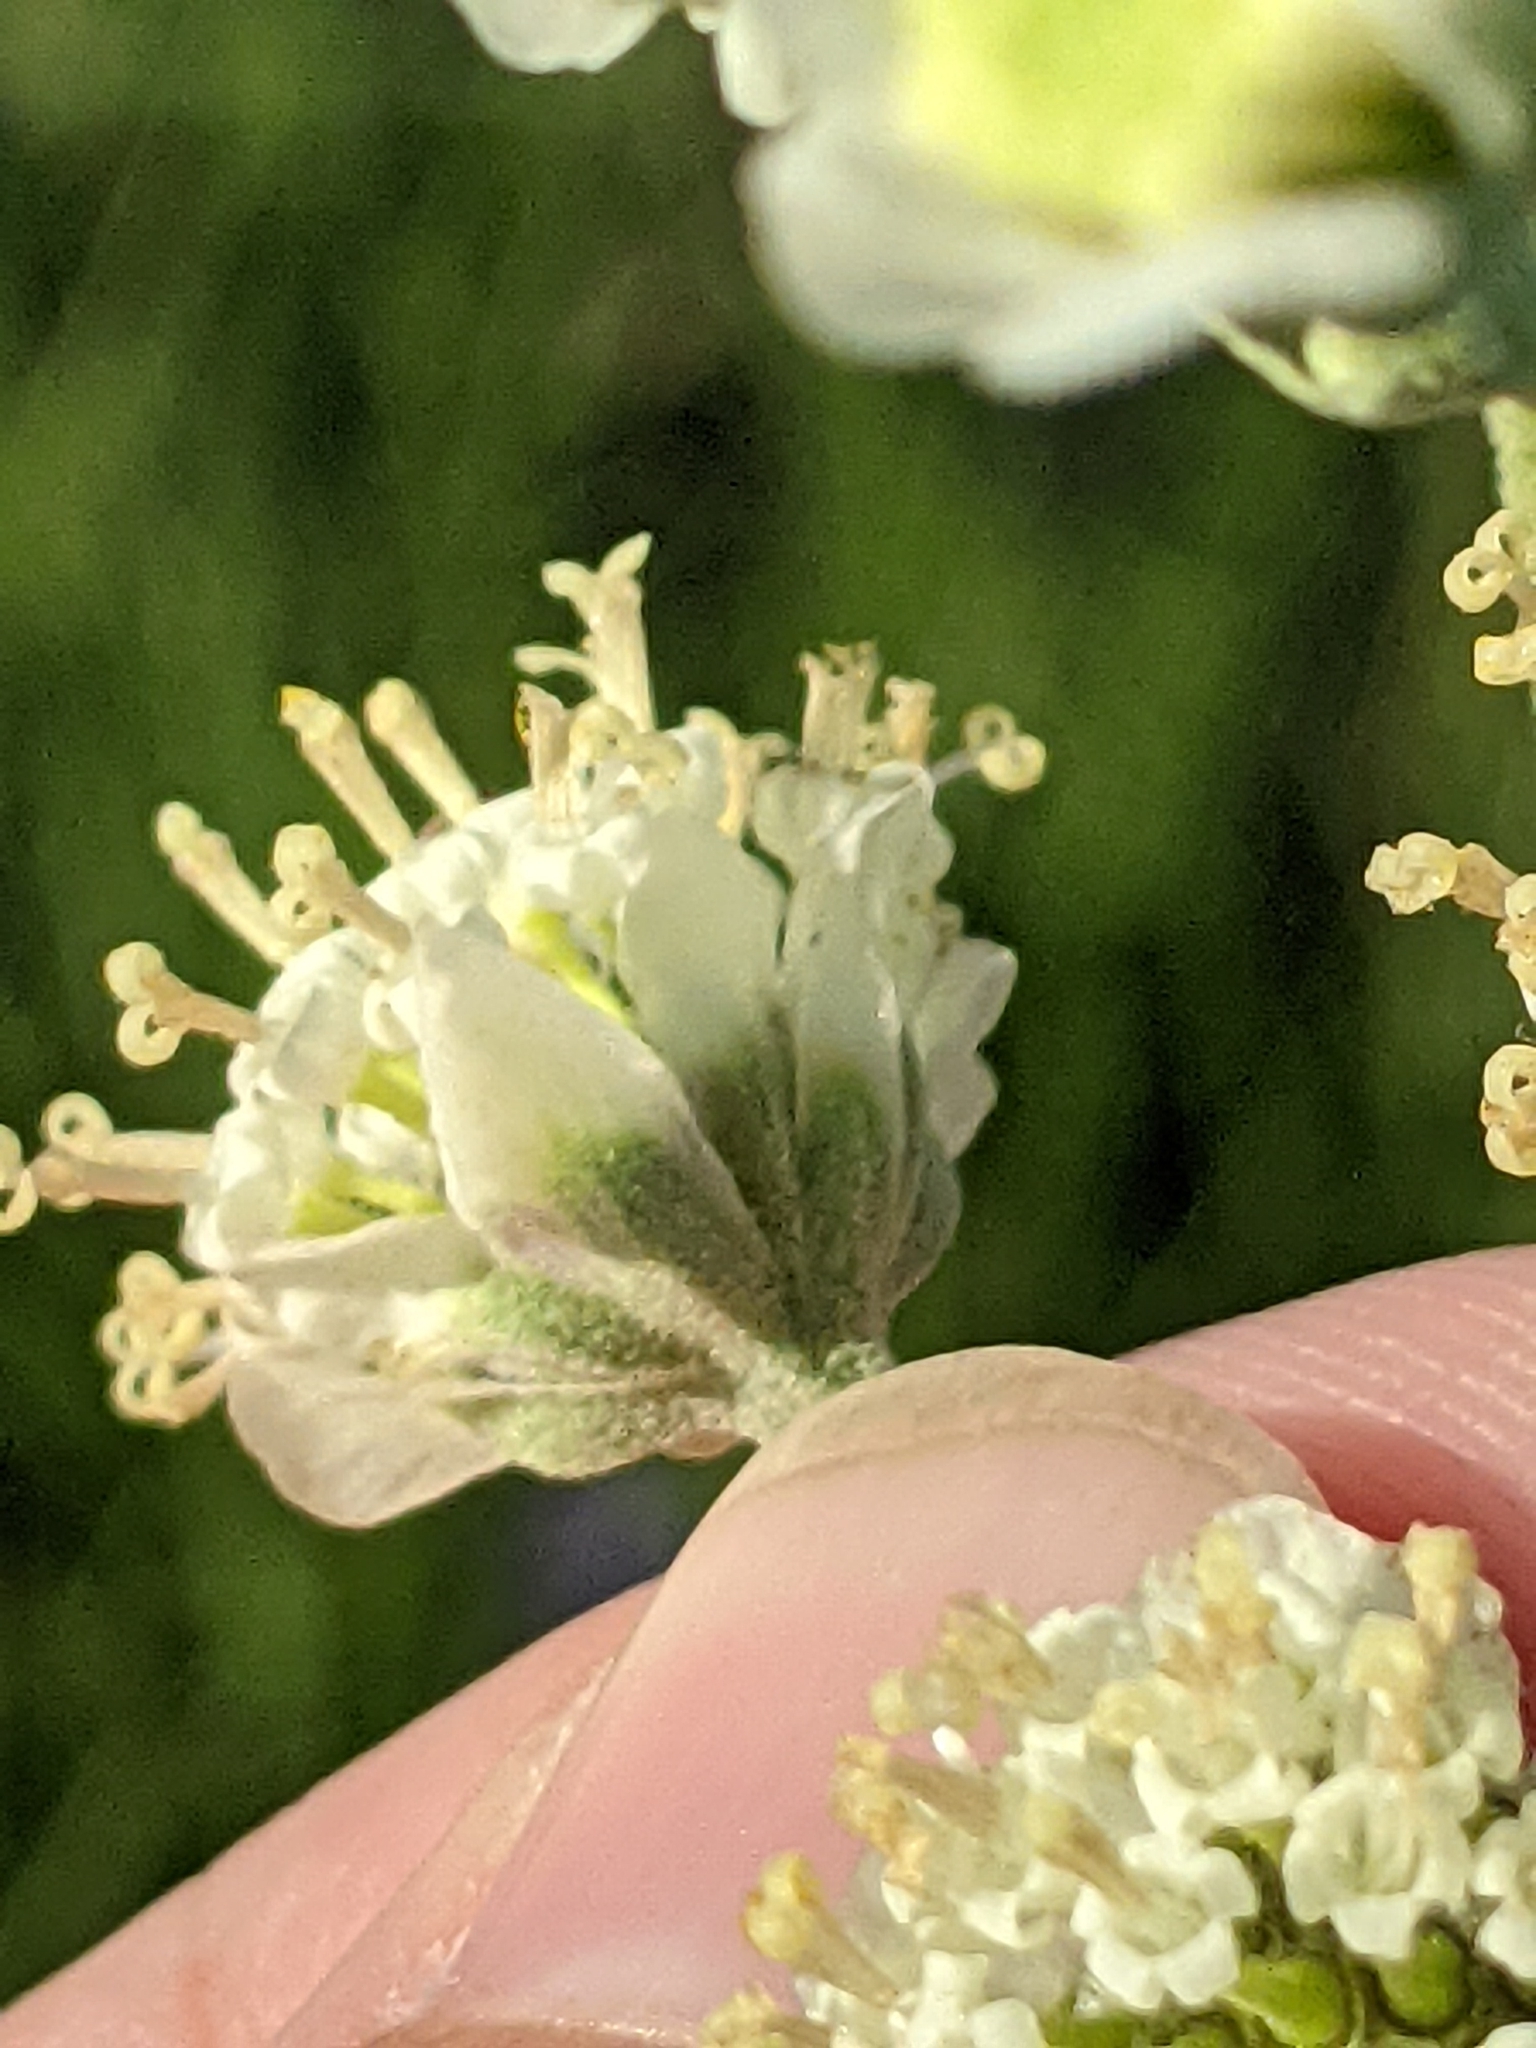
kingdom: Plantae
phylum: Tracheophyta
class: Magnoliopsida
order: Asterales
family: Asteraceae
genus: Hymenopappus
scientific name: Hymenopappus scabiosaeus
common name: Carolina woollywhite
